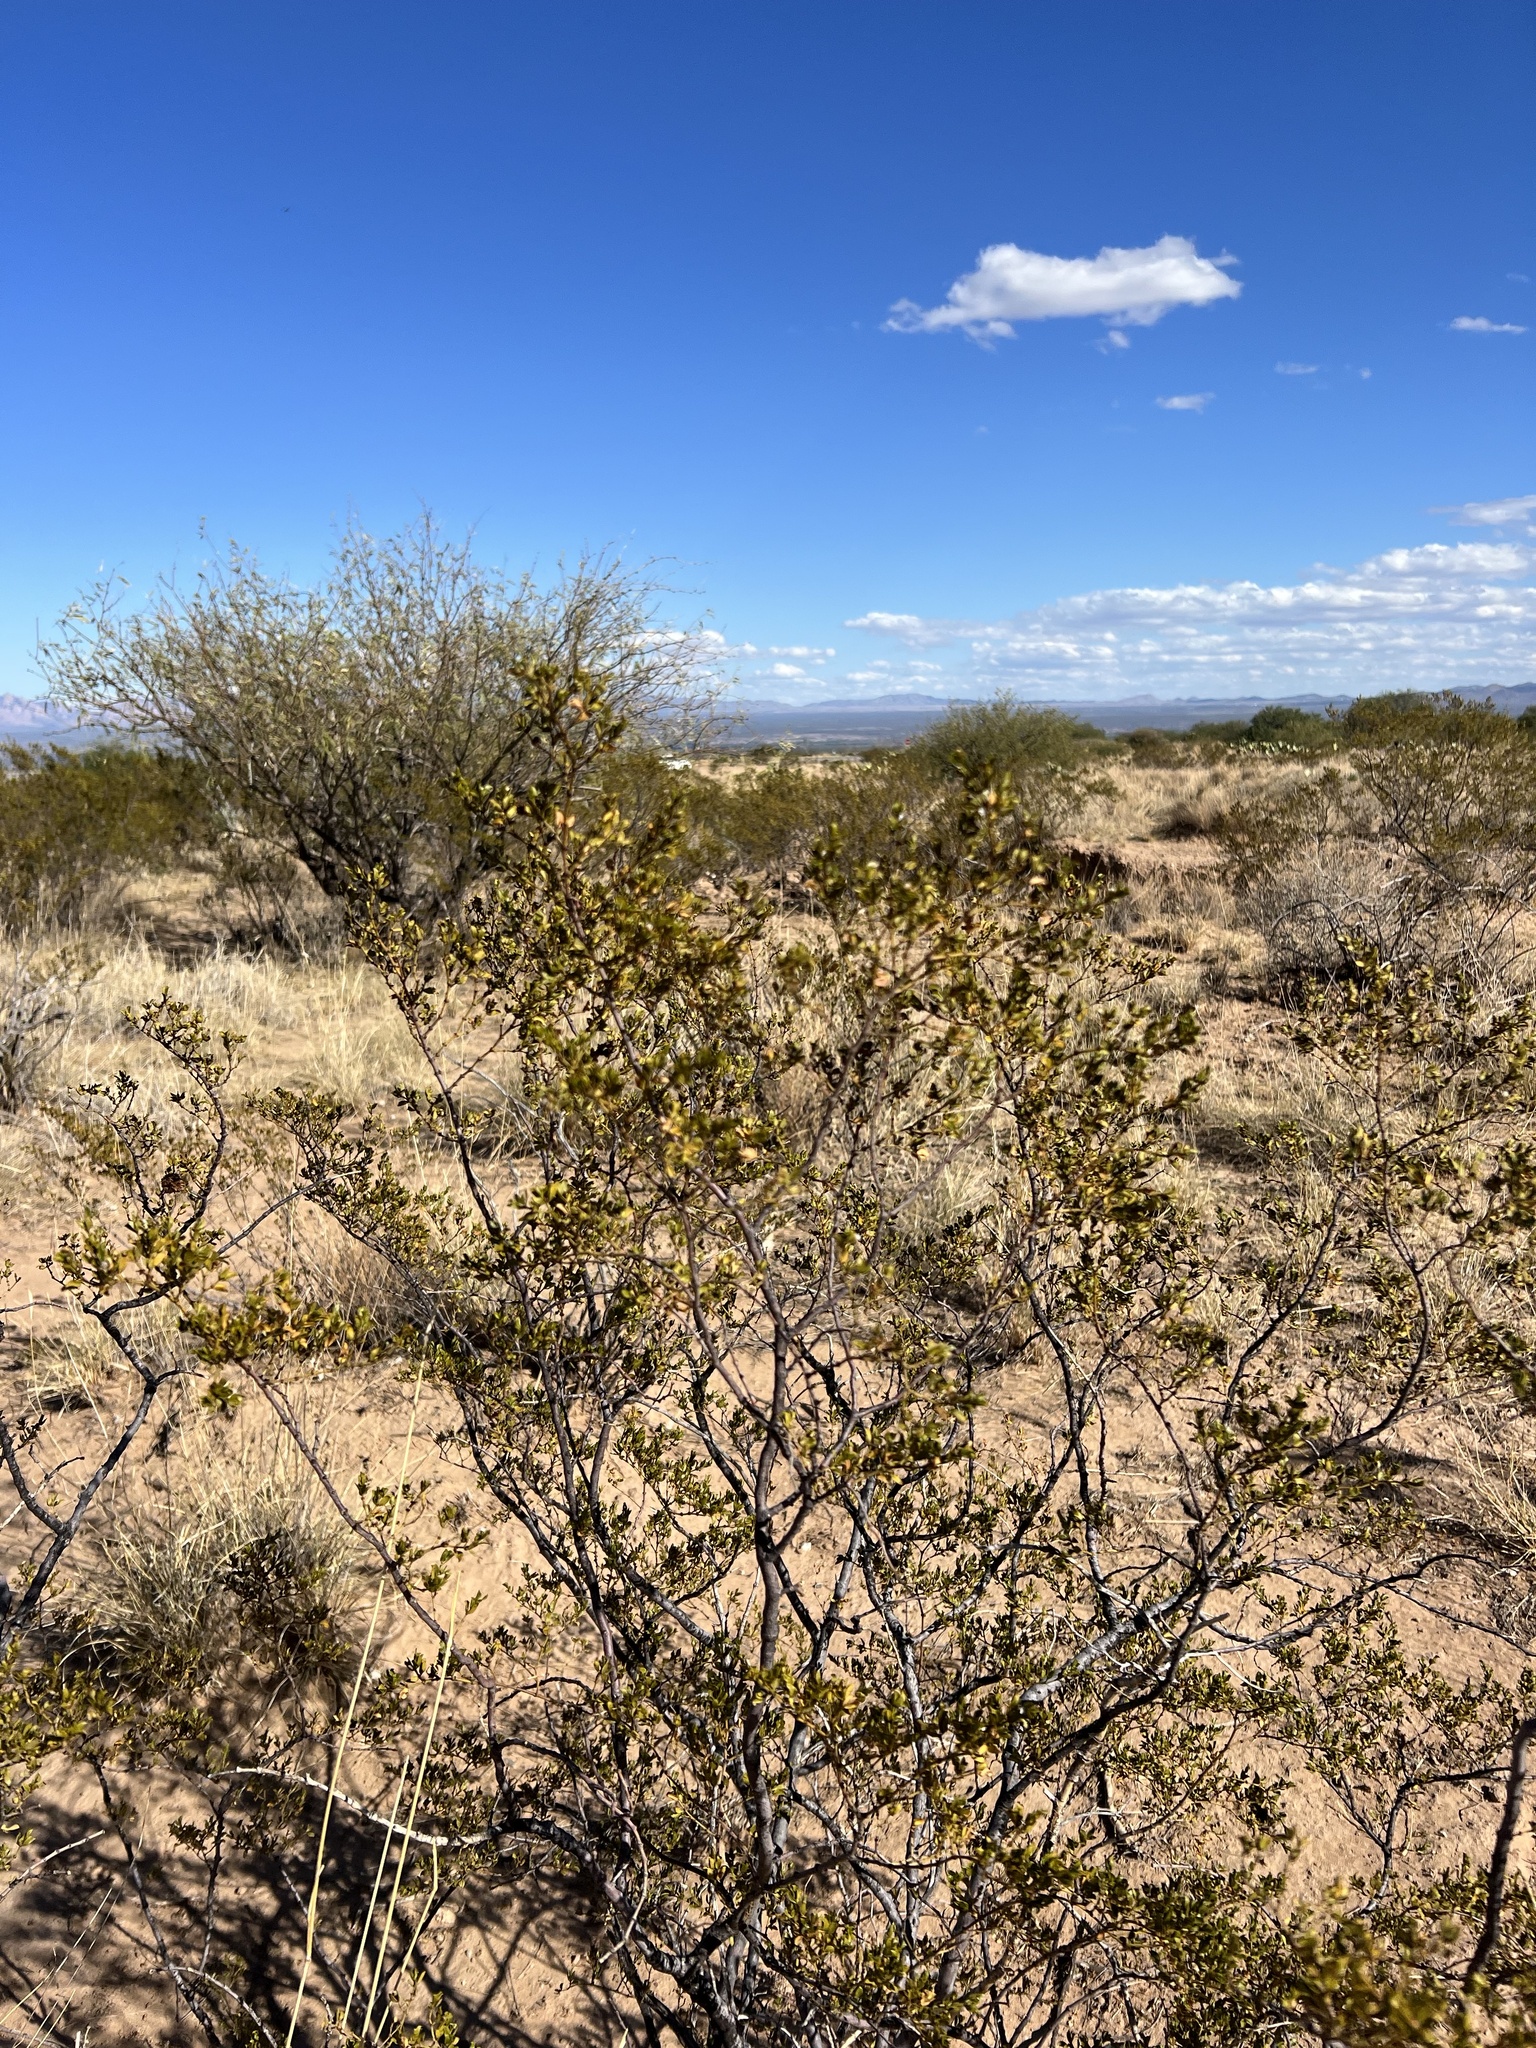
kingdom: Plantae
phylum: Tracheophyta
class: Magnoliopsida
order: Zygophyllales
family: Zygophyllaceae
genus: Larrea
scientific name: Larrea tridentata
